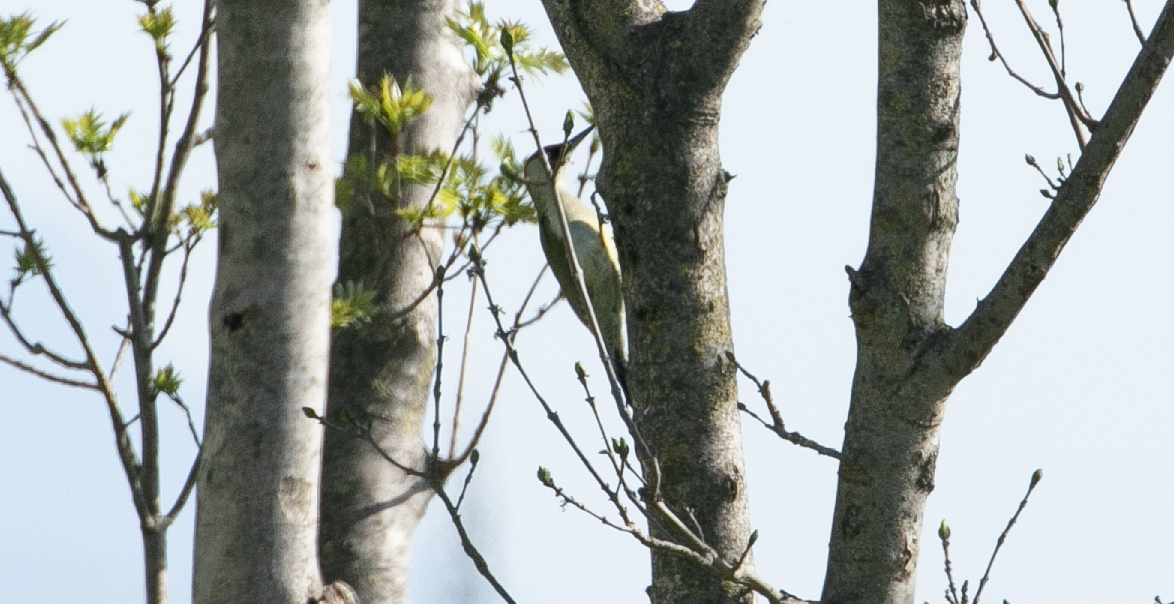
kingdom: Animalia
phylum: Chordata
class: Aves
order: Piciformes
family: Picidae
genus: Picus
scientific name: Picus viridis
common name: European green woodpecker
